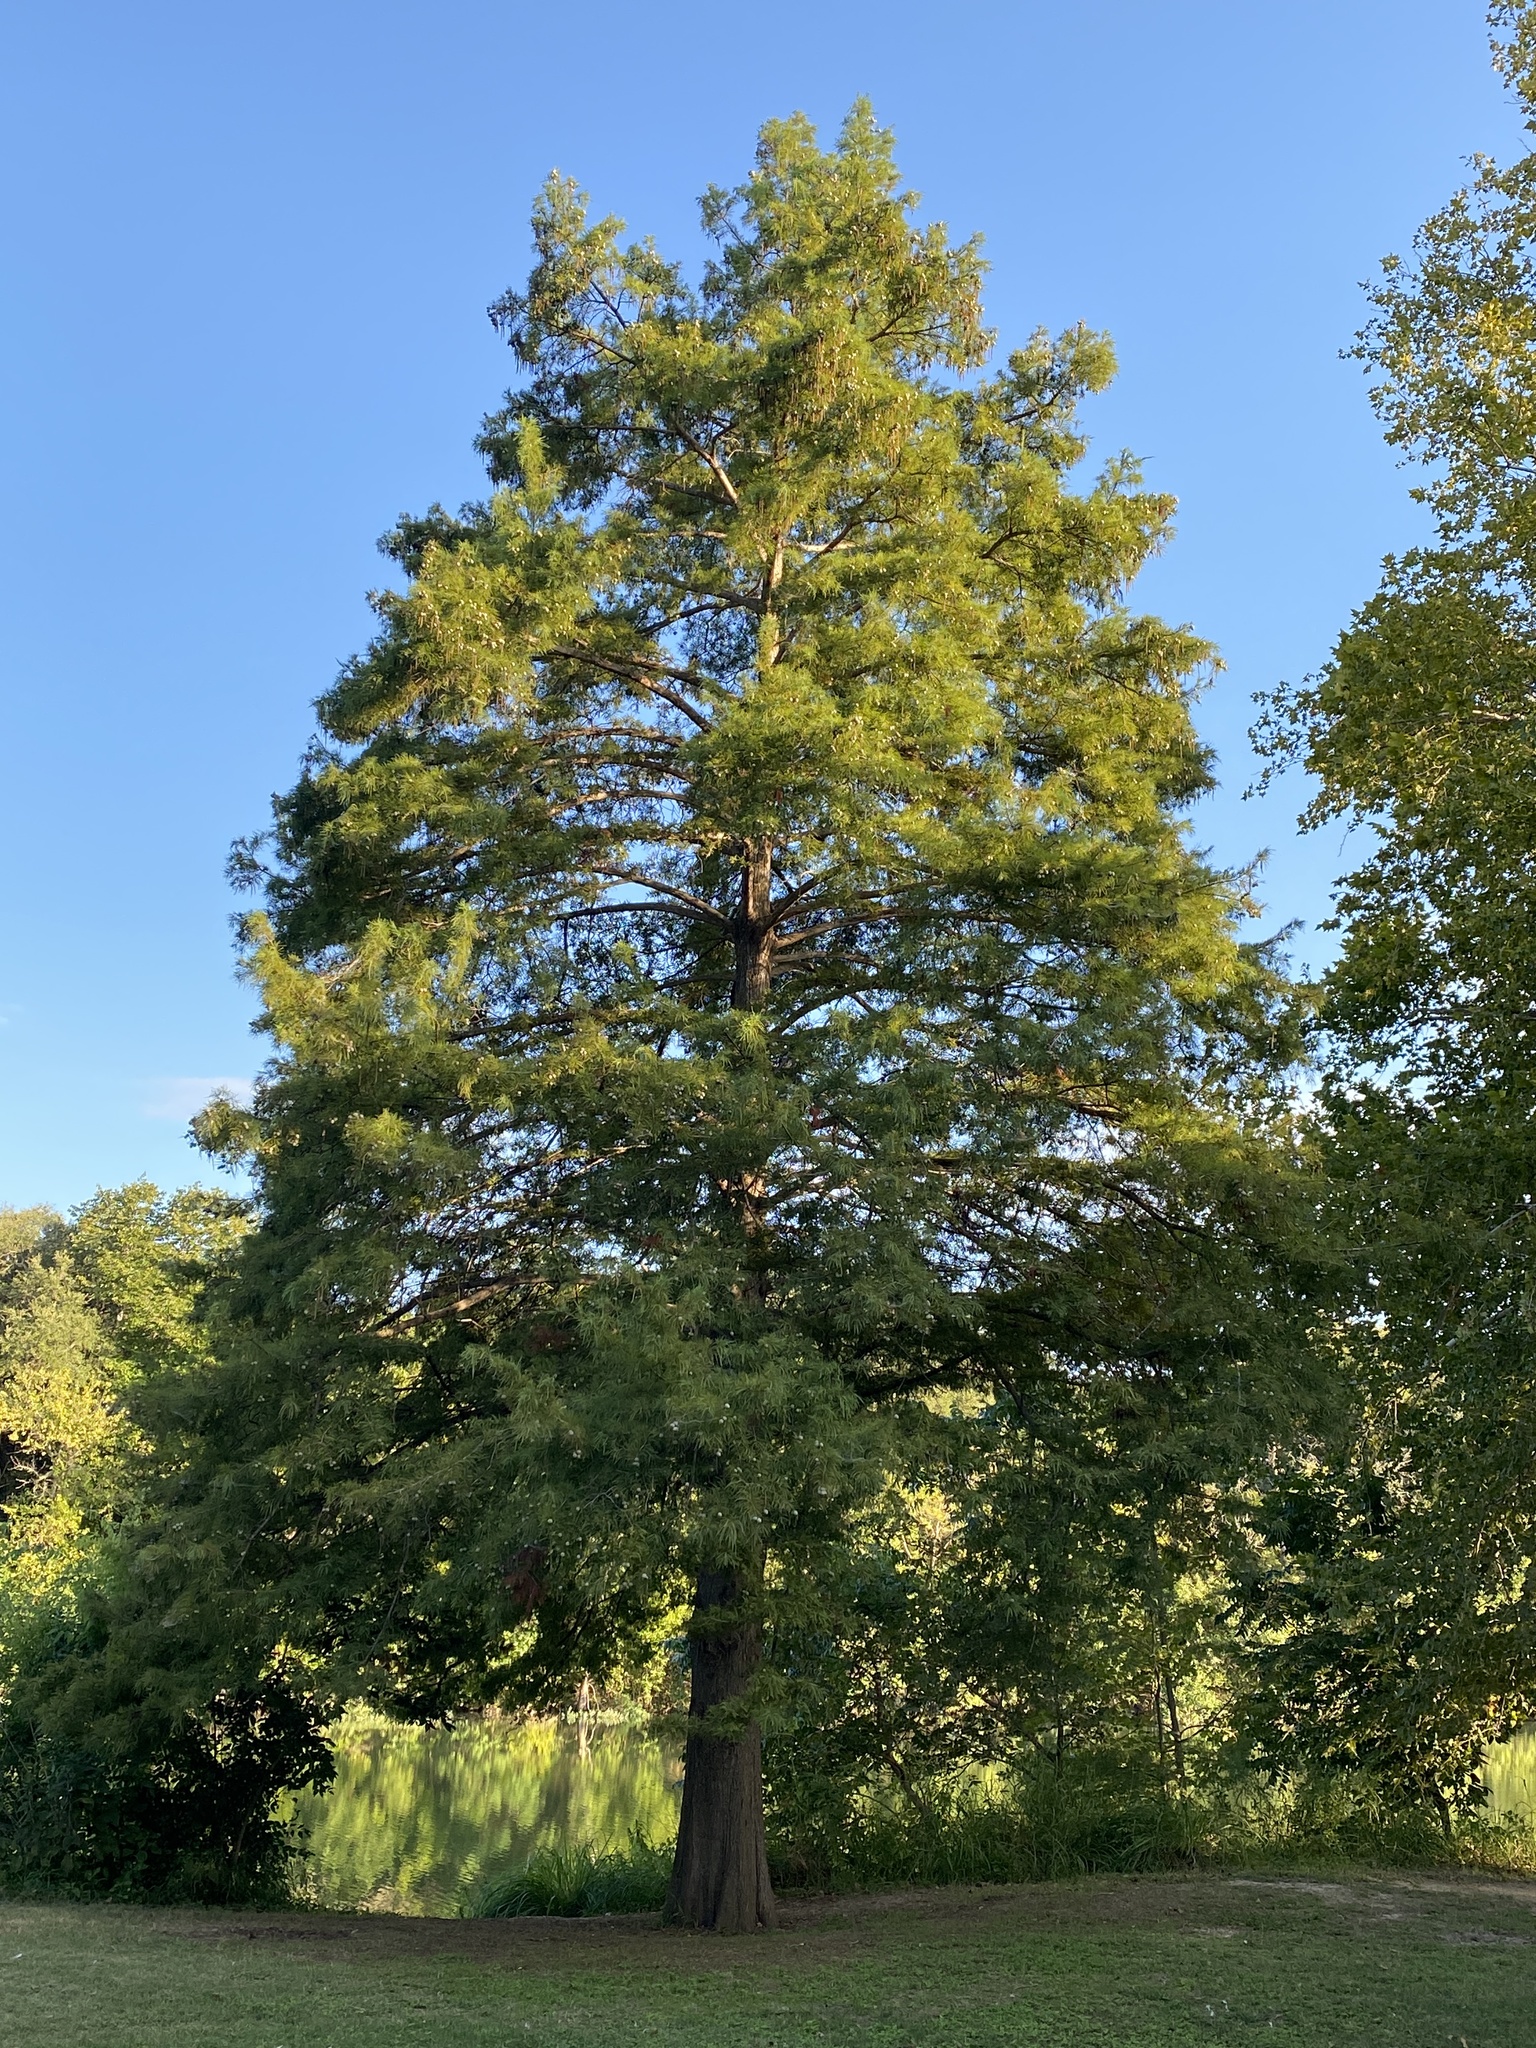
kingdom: Plantae
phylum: Tracheophyta
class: Pinopsida
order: Pinales
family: Cupressaceae
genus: Taxodium
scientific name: Taxodium distichum
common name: Bald cypress
